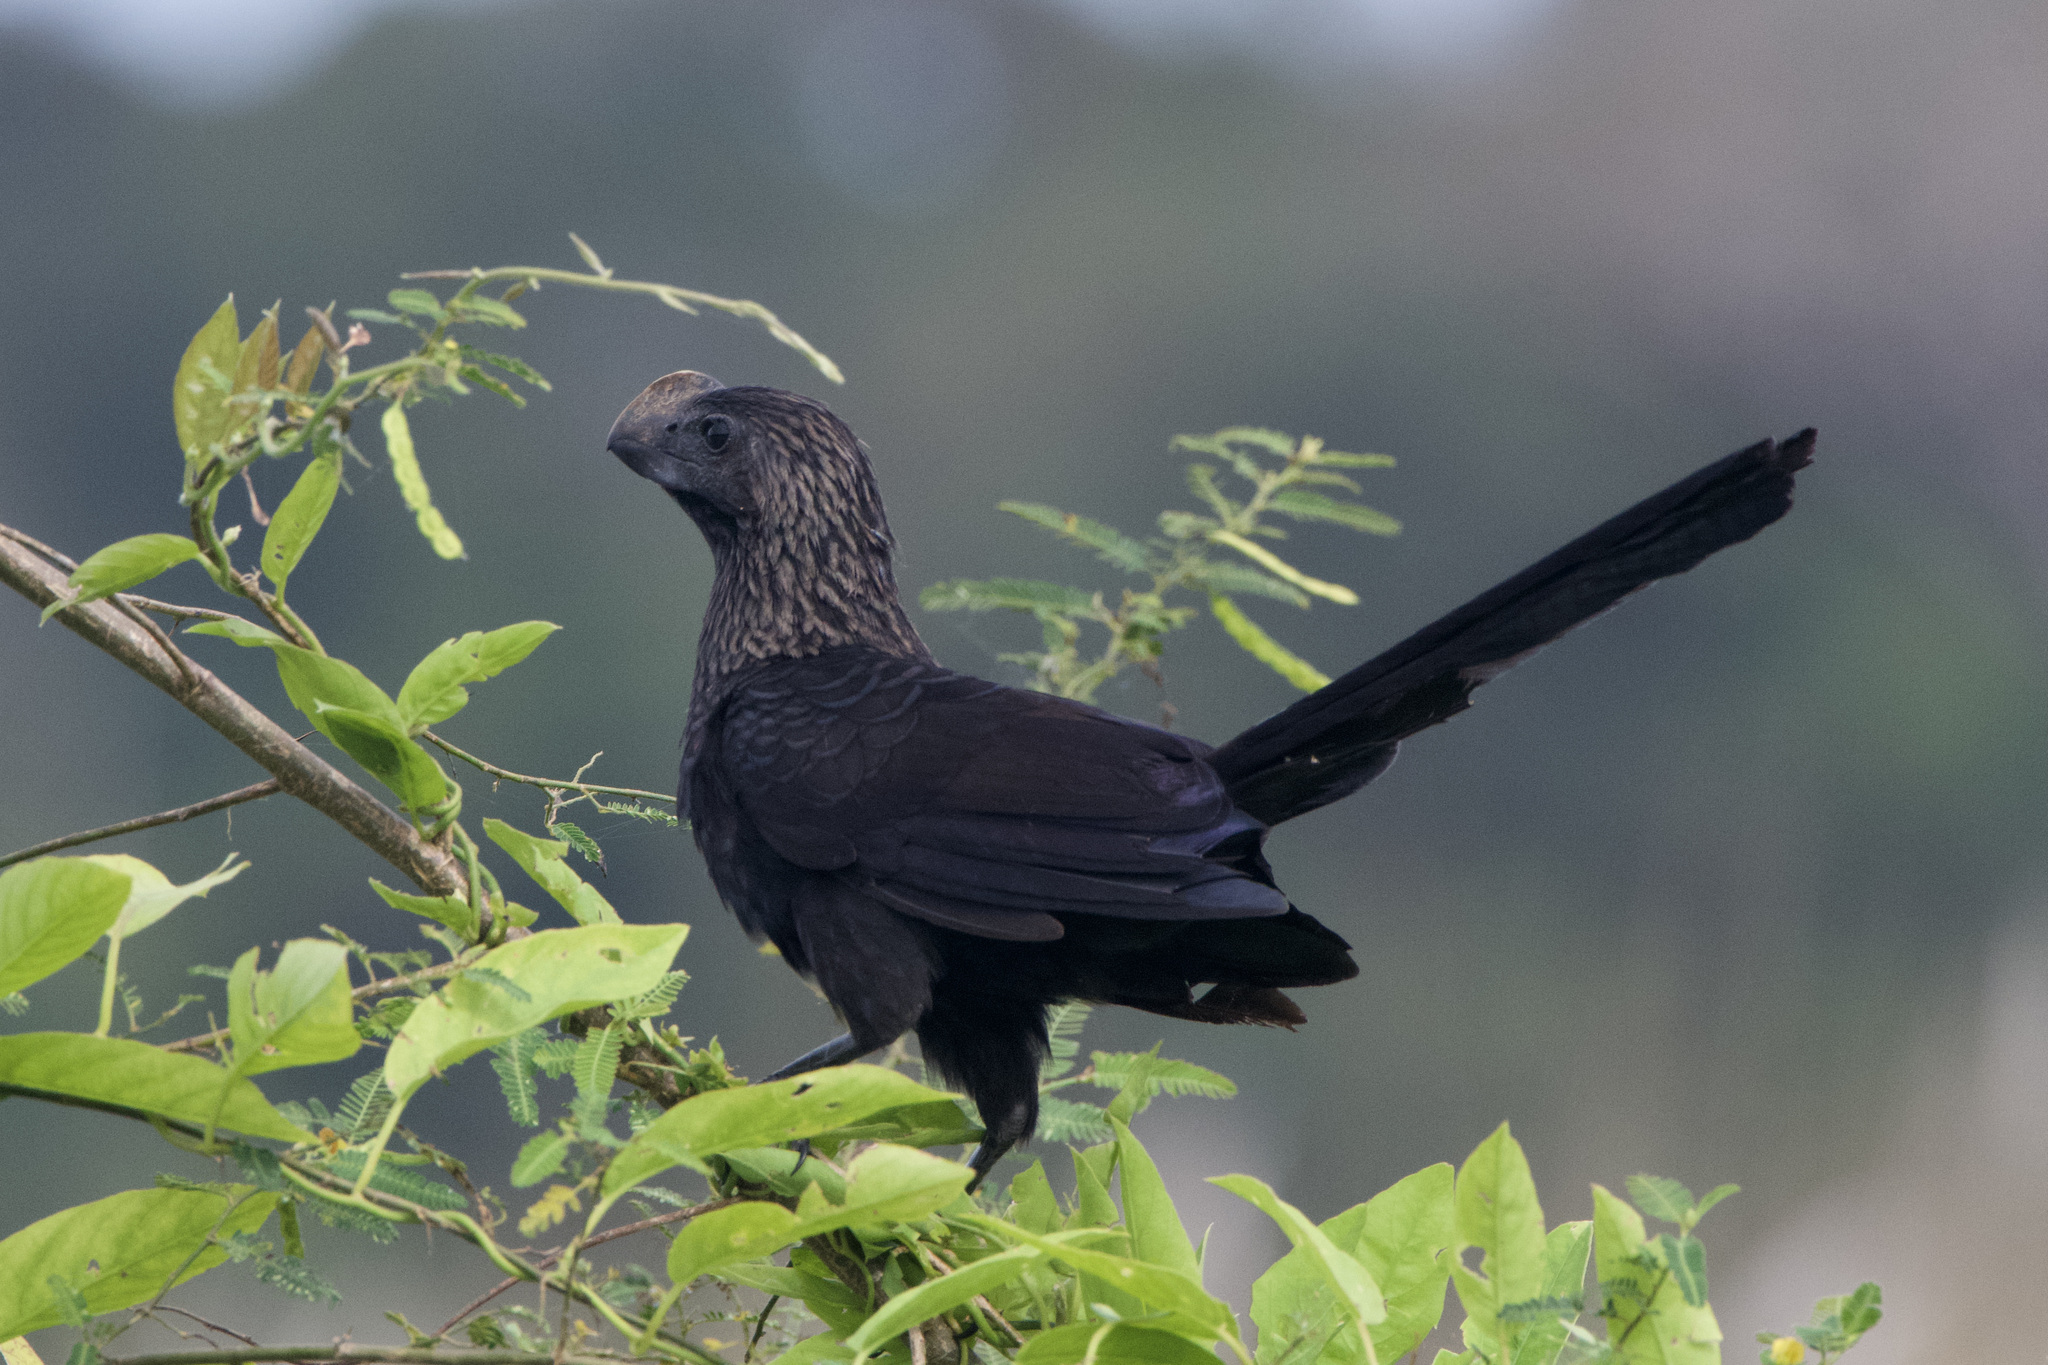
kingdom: Animalia
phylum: Chordata
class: Aves
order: Cuculiformes
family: Cuculidae
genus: Crotophaga
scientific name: Crotophaga ani
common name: Smooth-billed ani
